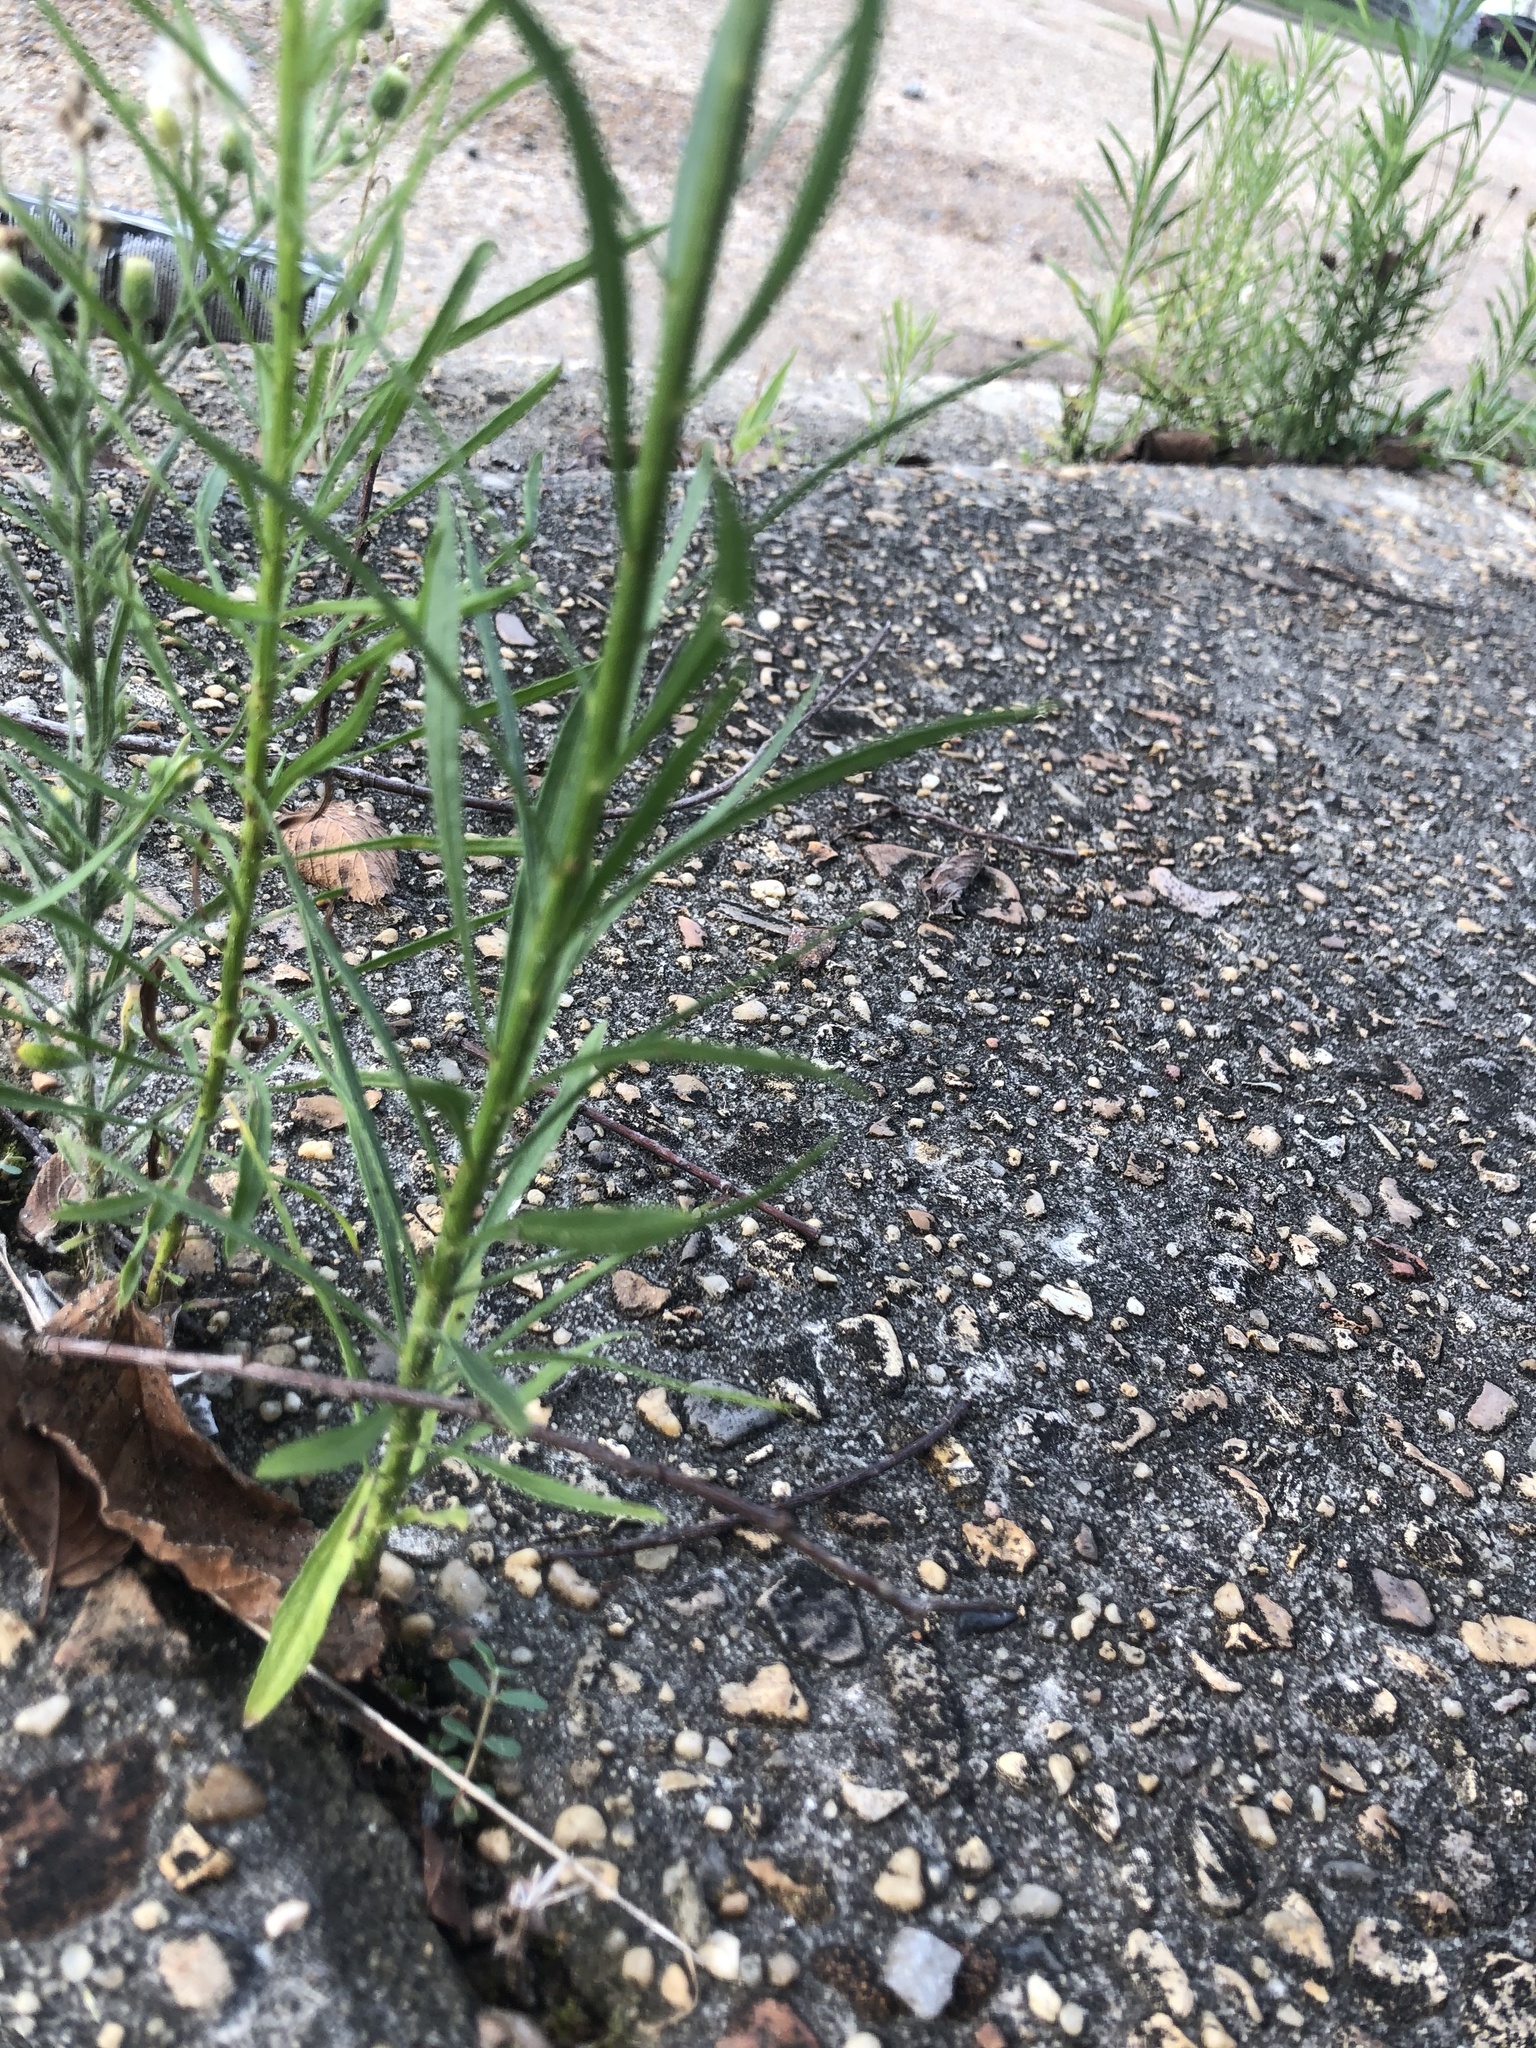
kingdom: Plantae
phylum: Tracheophyta
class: Magnoliopsida
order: Asterales
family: Asteraceae
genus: Erigeron
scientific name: Erigeron canadensis
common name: Canadian fleabane
